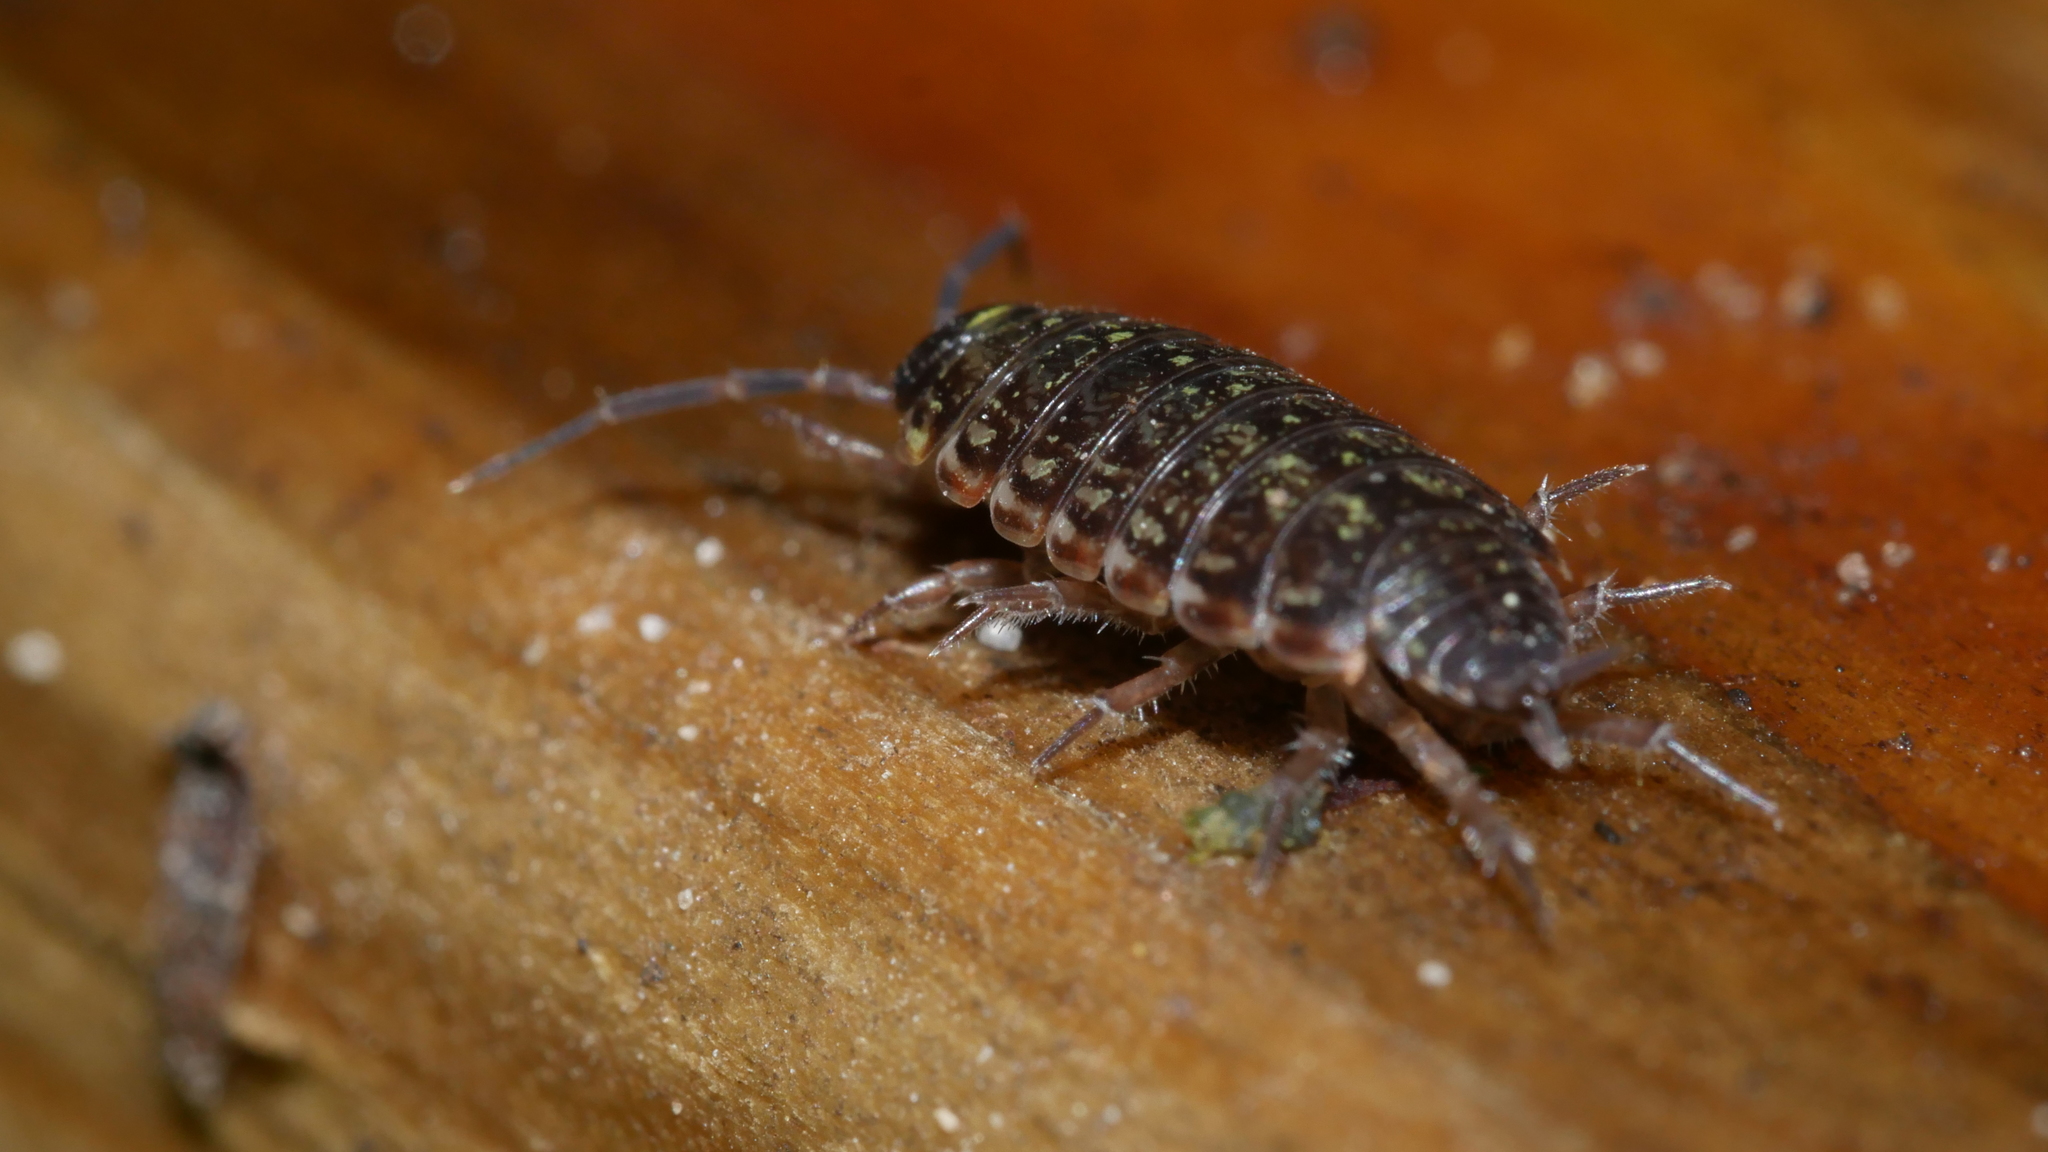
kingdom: Animalia
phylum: Arthropoda
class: Malacostraca
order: Isopoda
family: Philosciidae
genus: Philoscia
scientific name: Philoscia muscorum
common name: Common striped woodlouse
